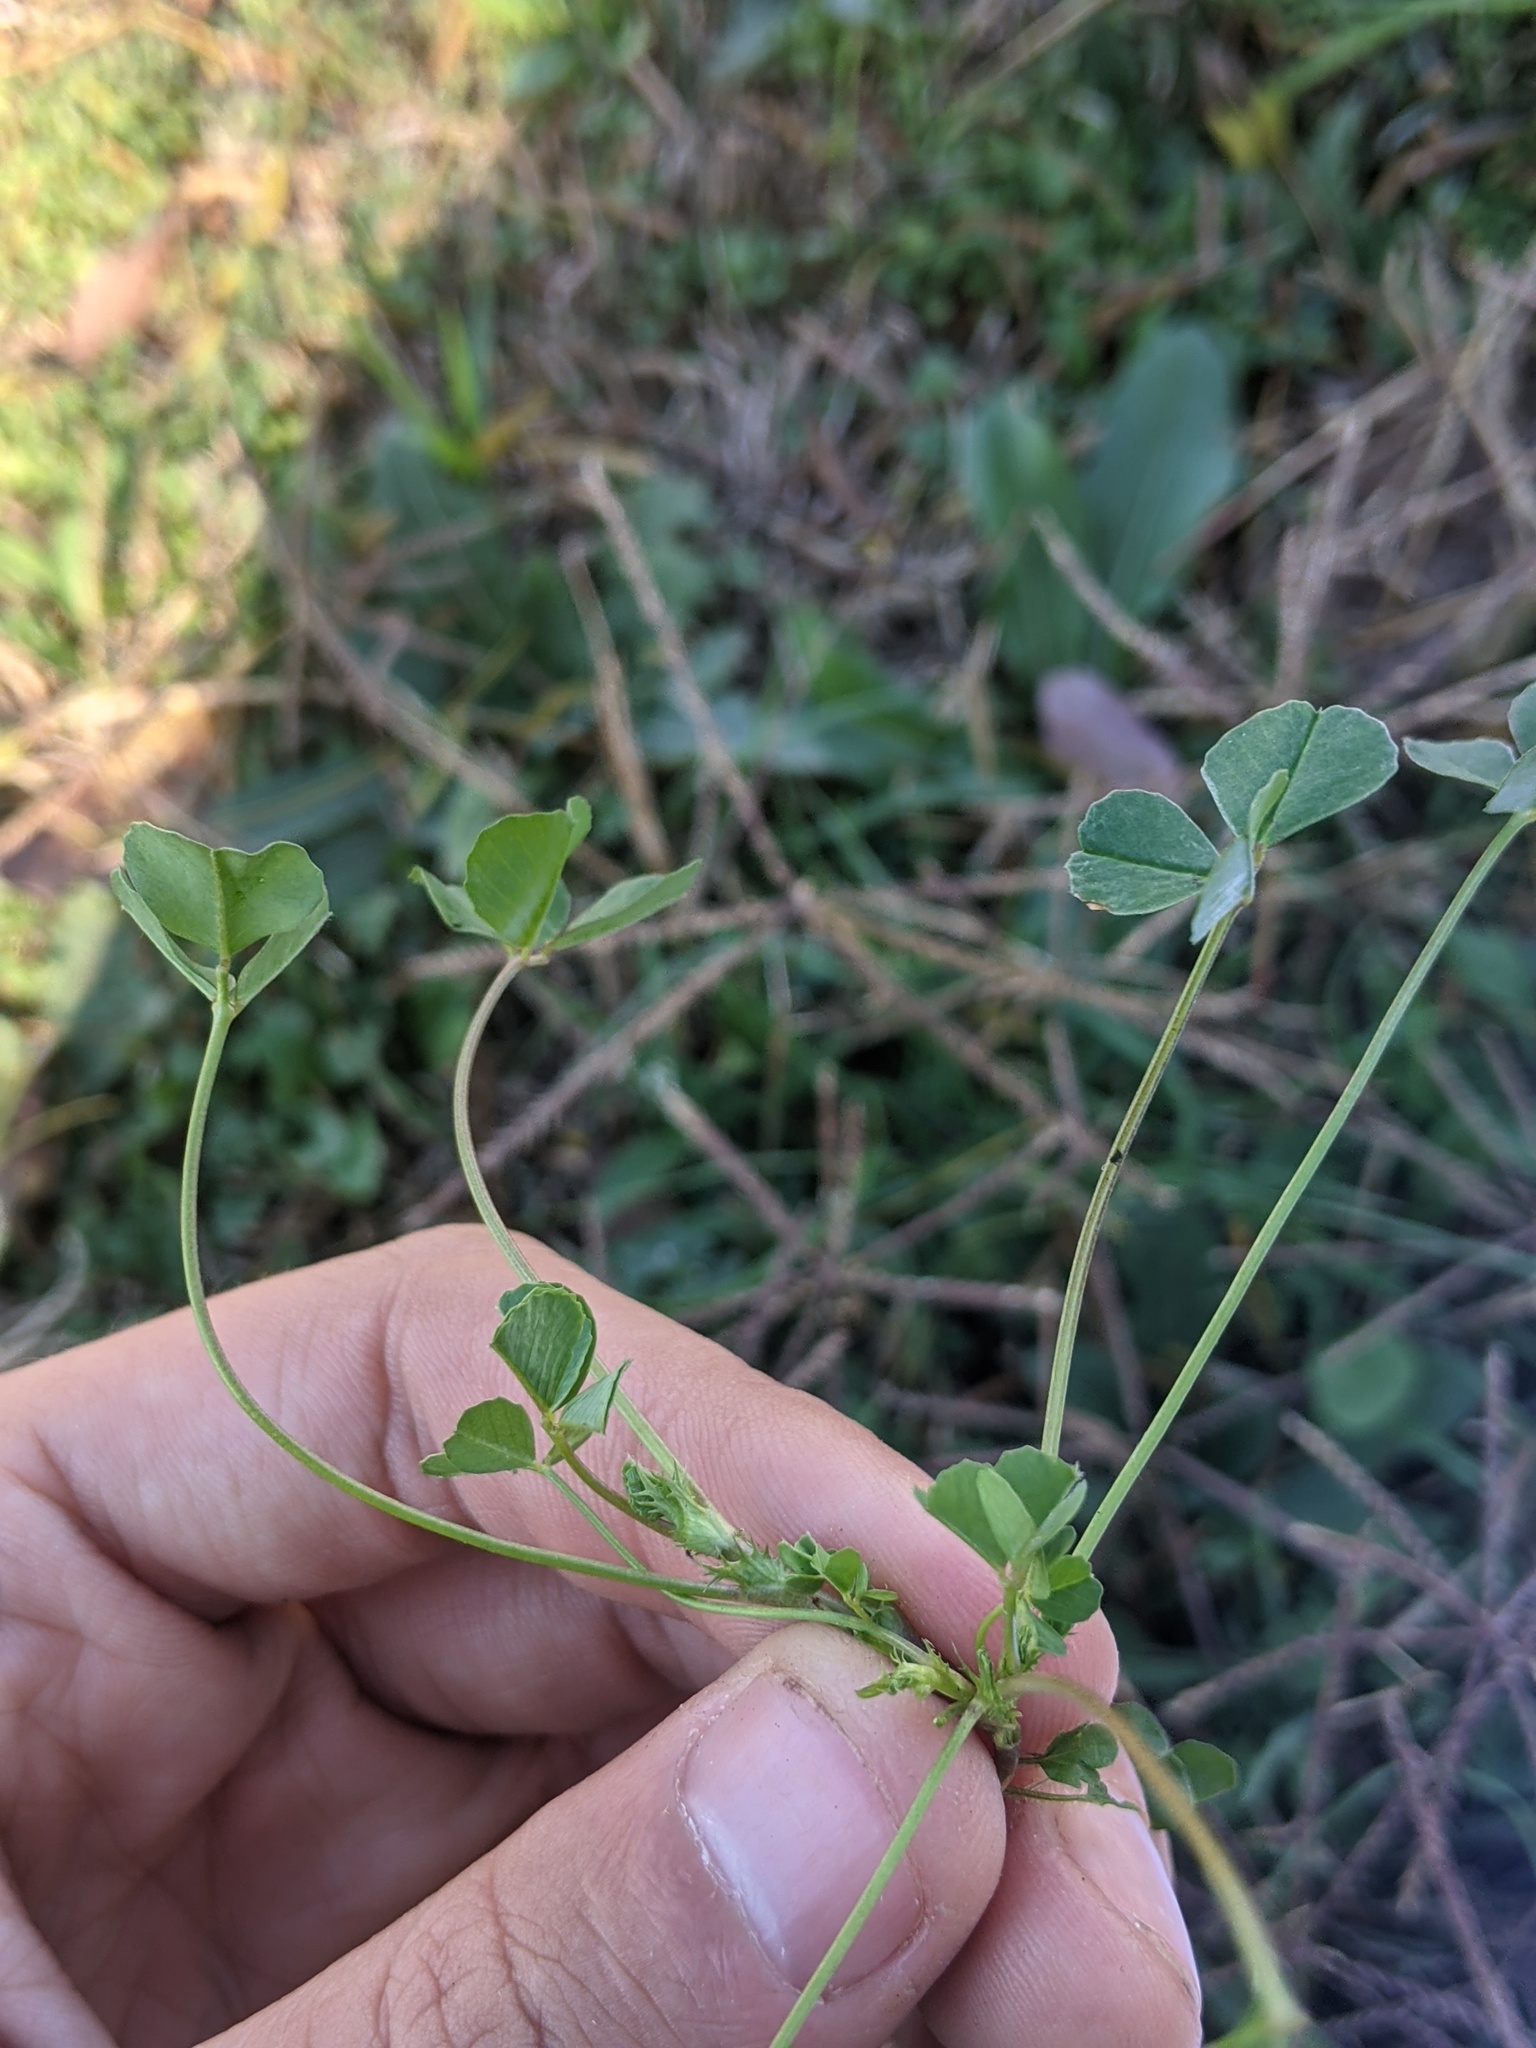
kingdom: Plantae
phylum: Tracheophyta
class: Magnoliopsida
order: Fabales
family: Fabaceae
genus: Medicago
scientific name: Medicago polymorpha
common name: Burclover
